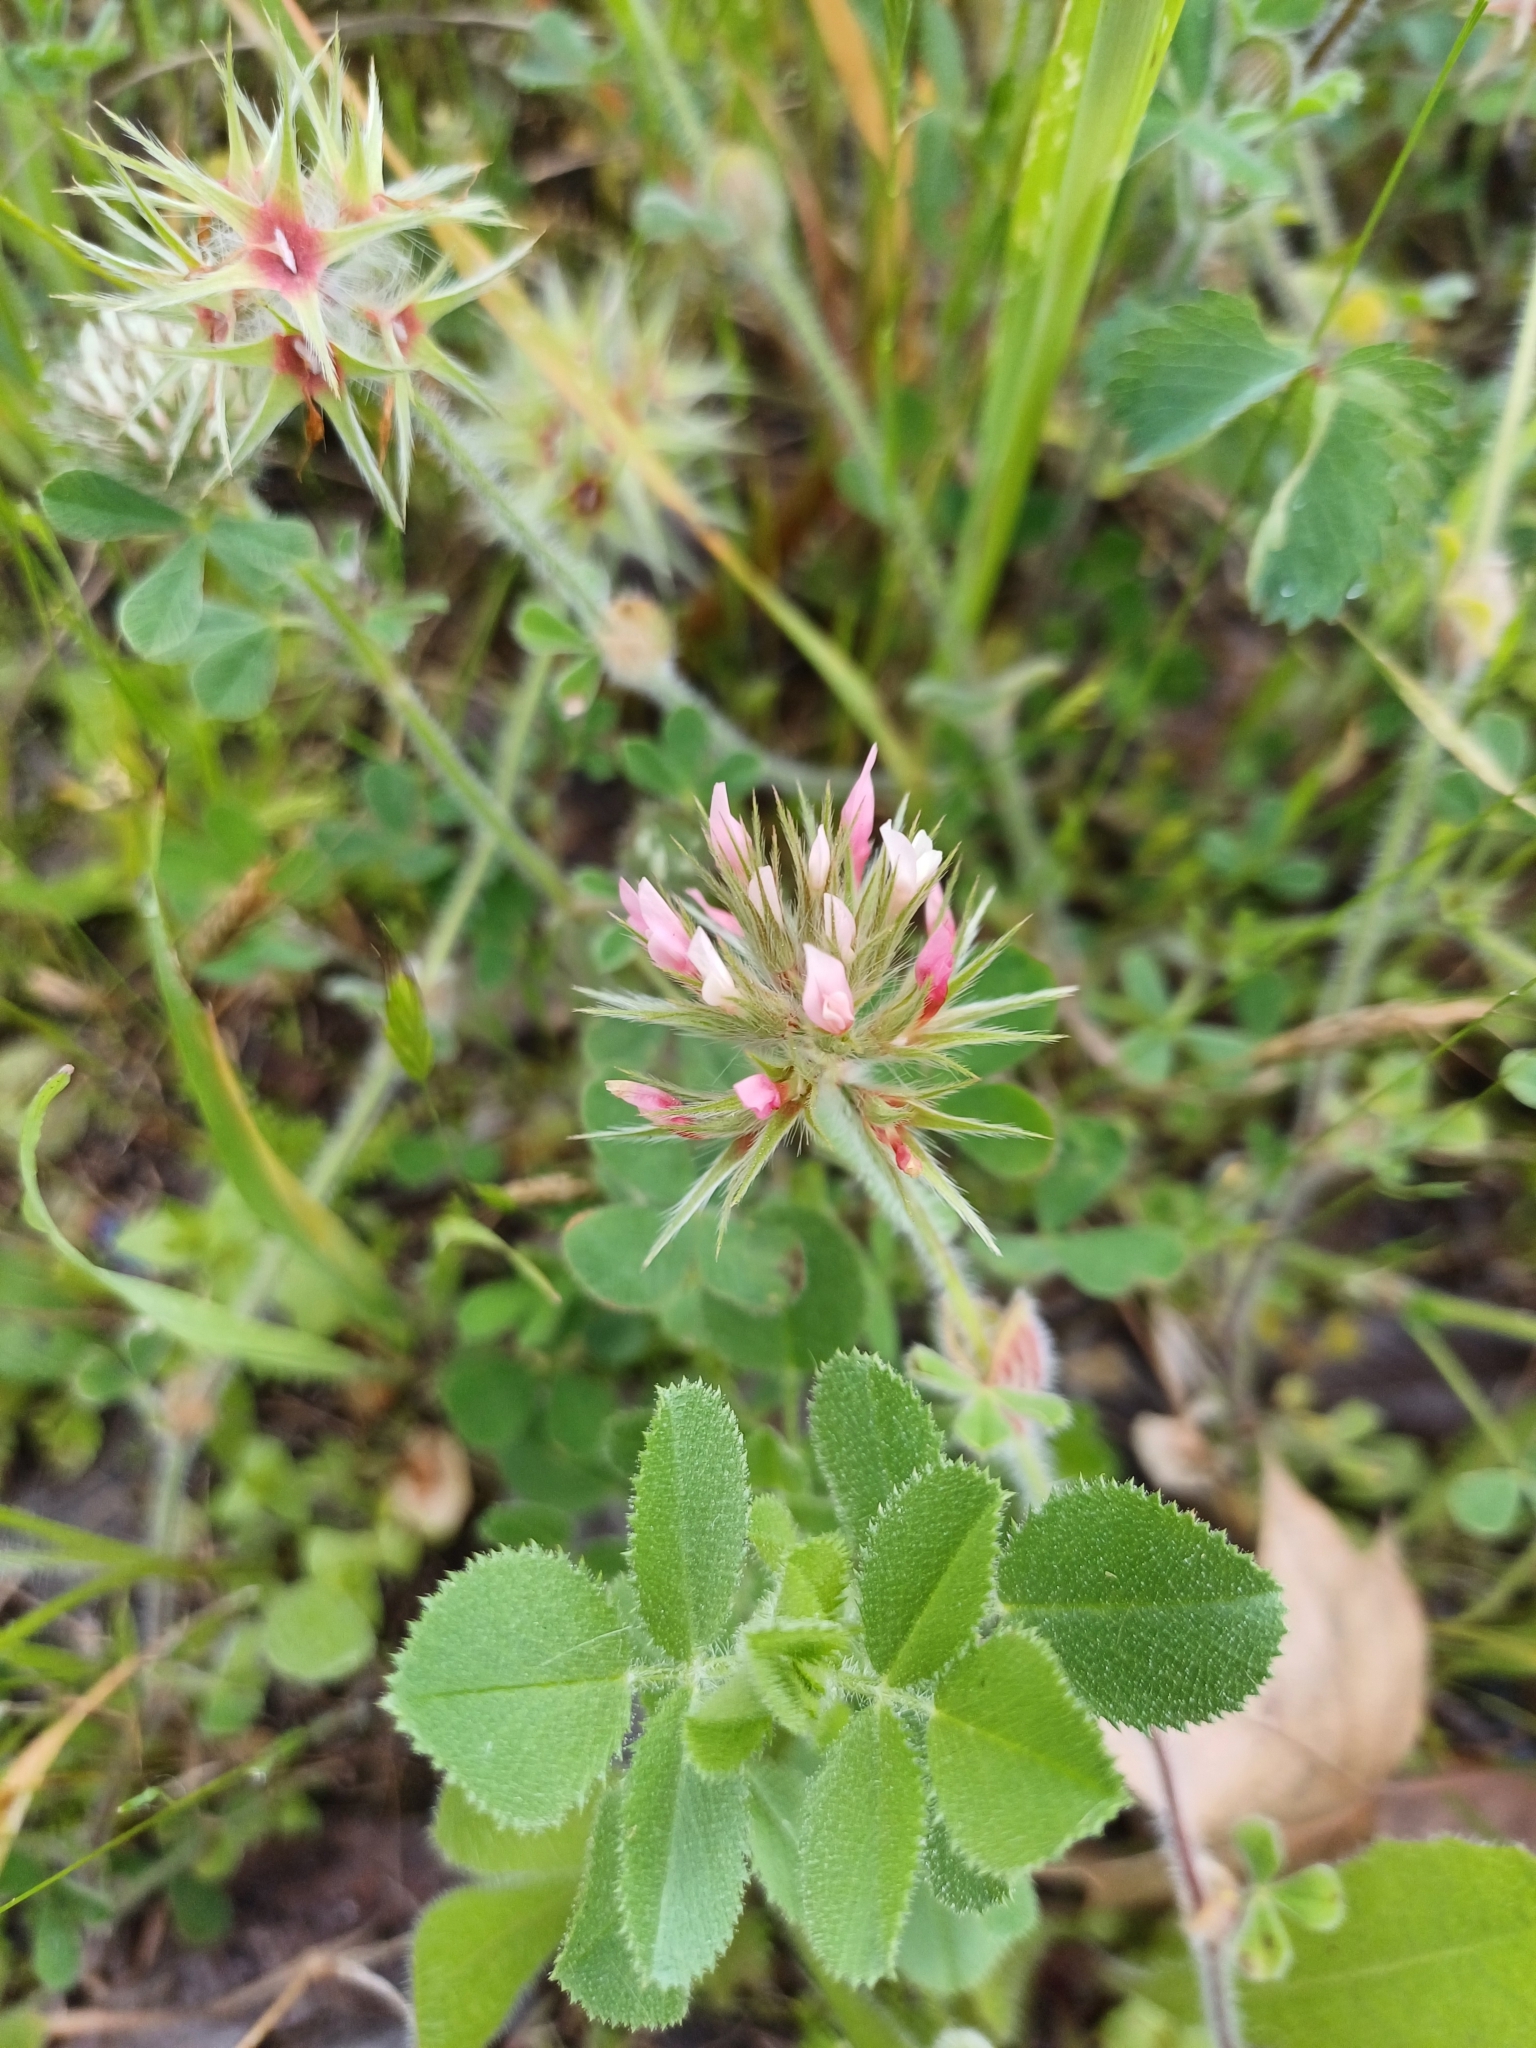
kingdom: Plantae
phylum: Tracheophyta
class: Magnoliopsida
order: Fabales
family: Fabaceae
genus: Trifolium
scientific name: Trifolium stellatum
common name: Starry clover
